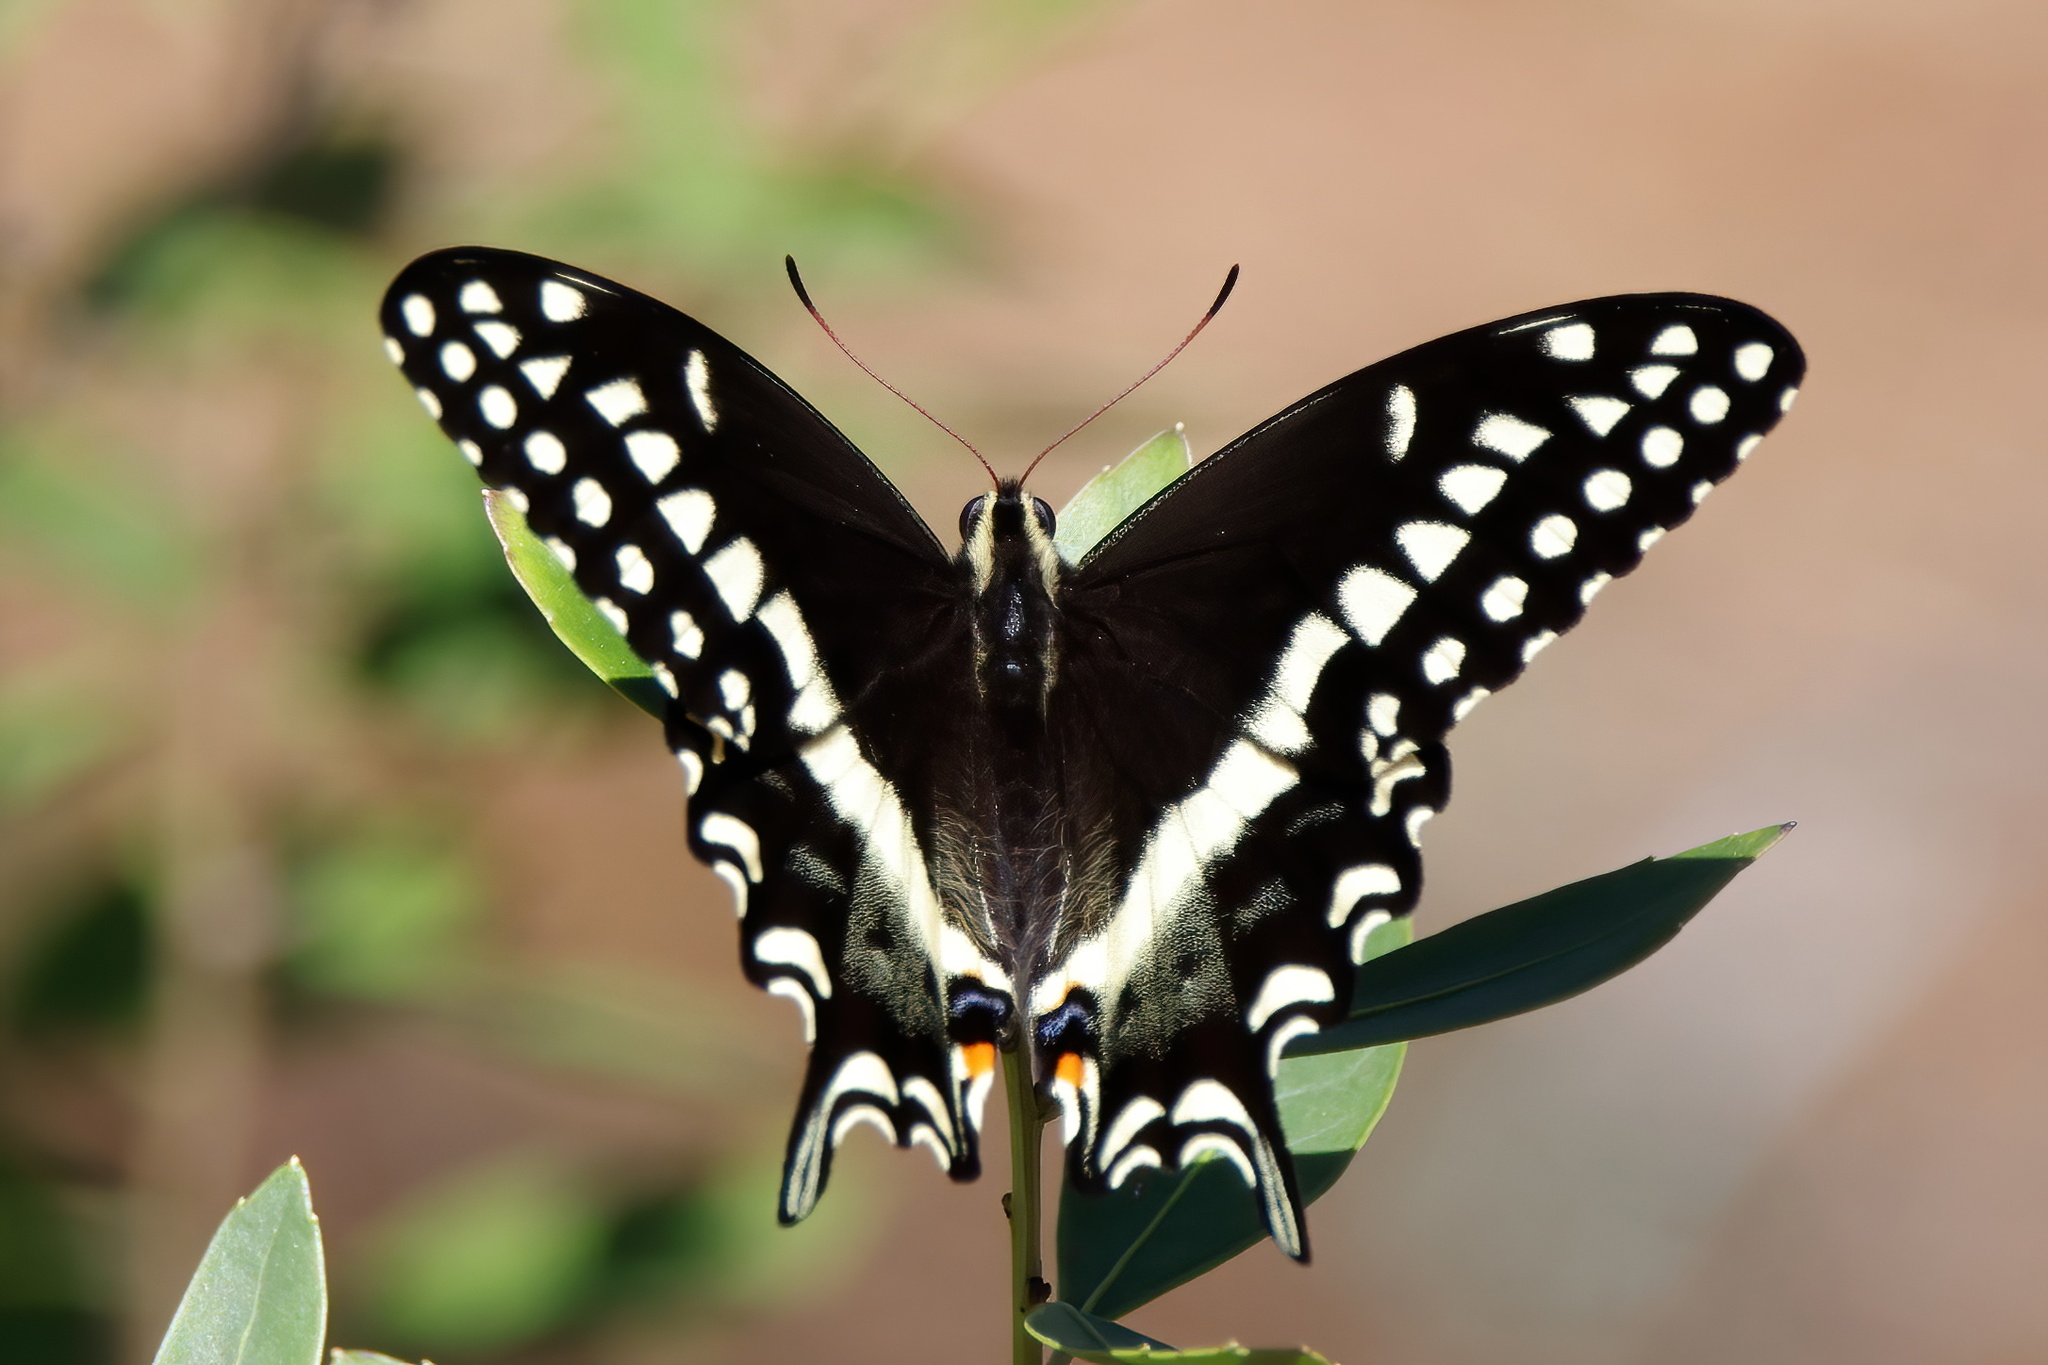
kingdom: Animalia
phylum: Arthropoda
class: Insecta
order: Lepidoptera
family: Papilionidae
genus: Papilio
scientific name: Papilio palamedes
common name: Palamedes swallowtail
